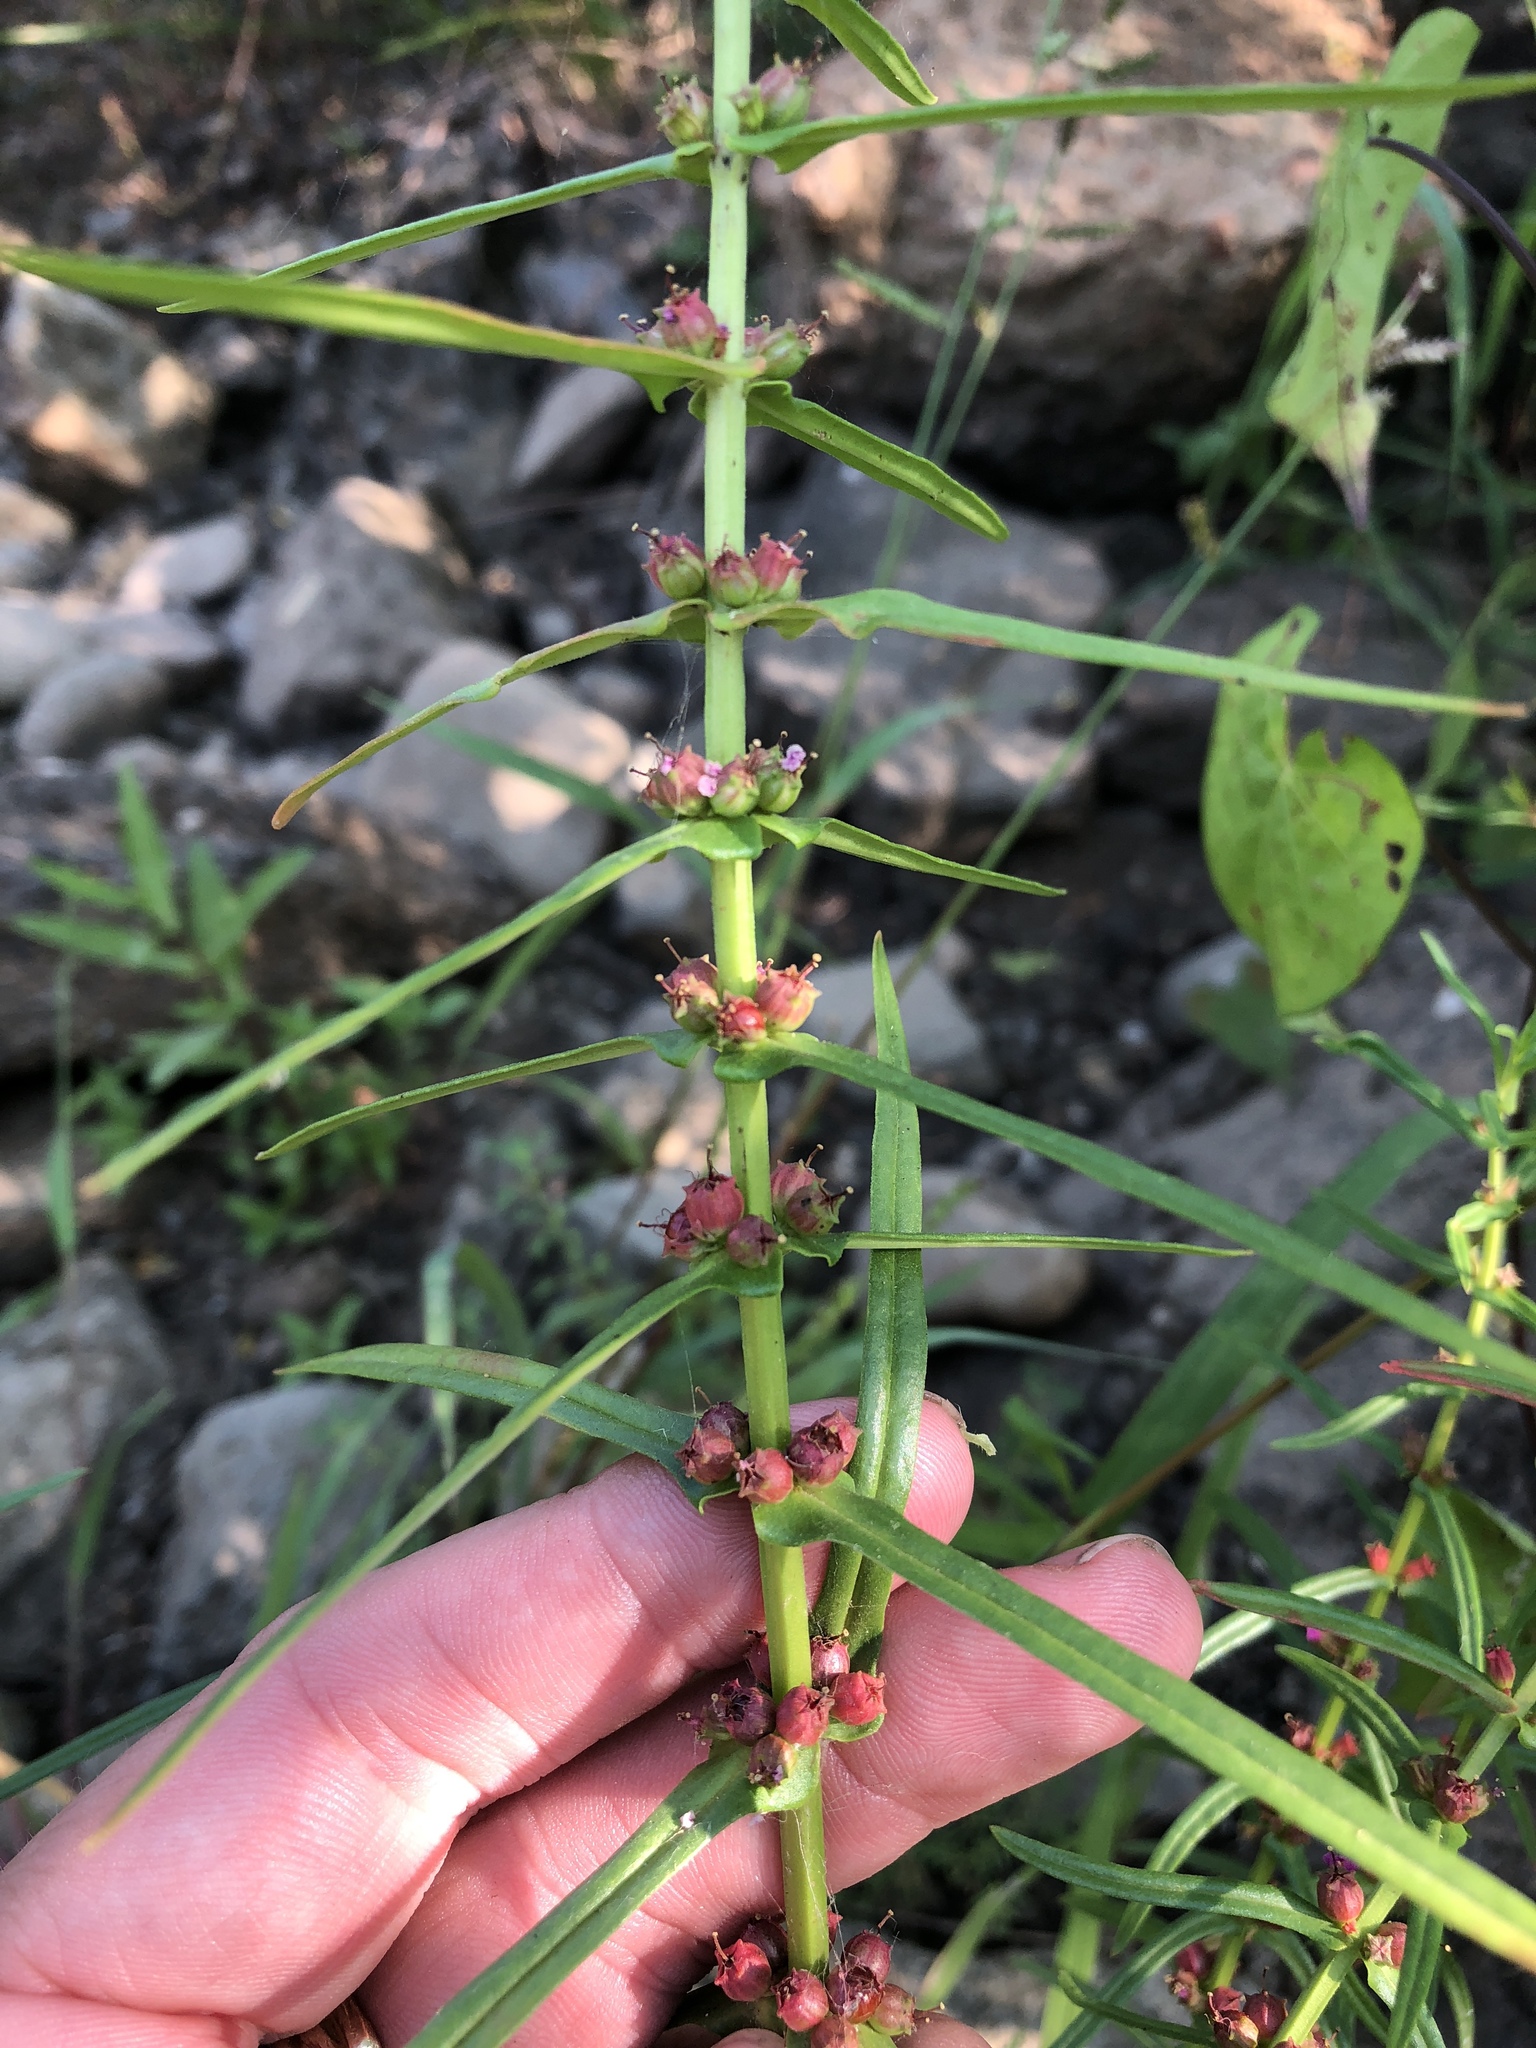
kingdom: Plantae
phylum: Tracheophyta
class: Magnoliopsida
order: Myrtales
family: Lythraceae
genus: Ammannia
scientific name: Ammannia coccinea
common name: Valley redstem
